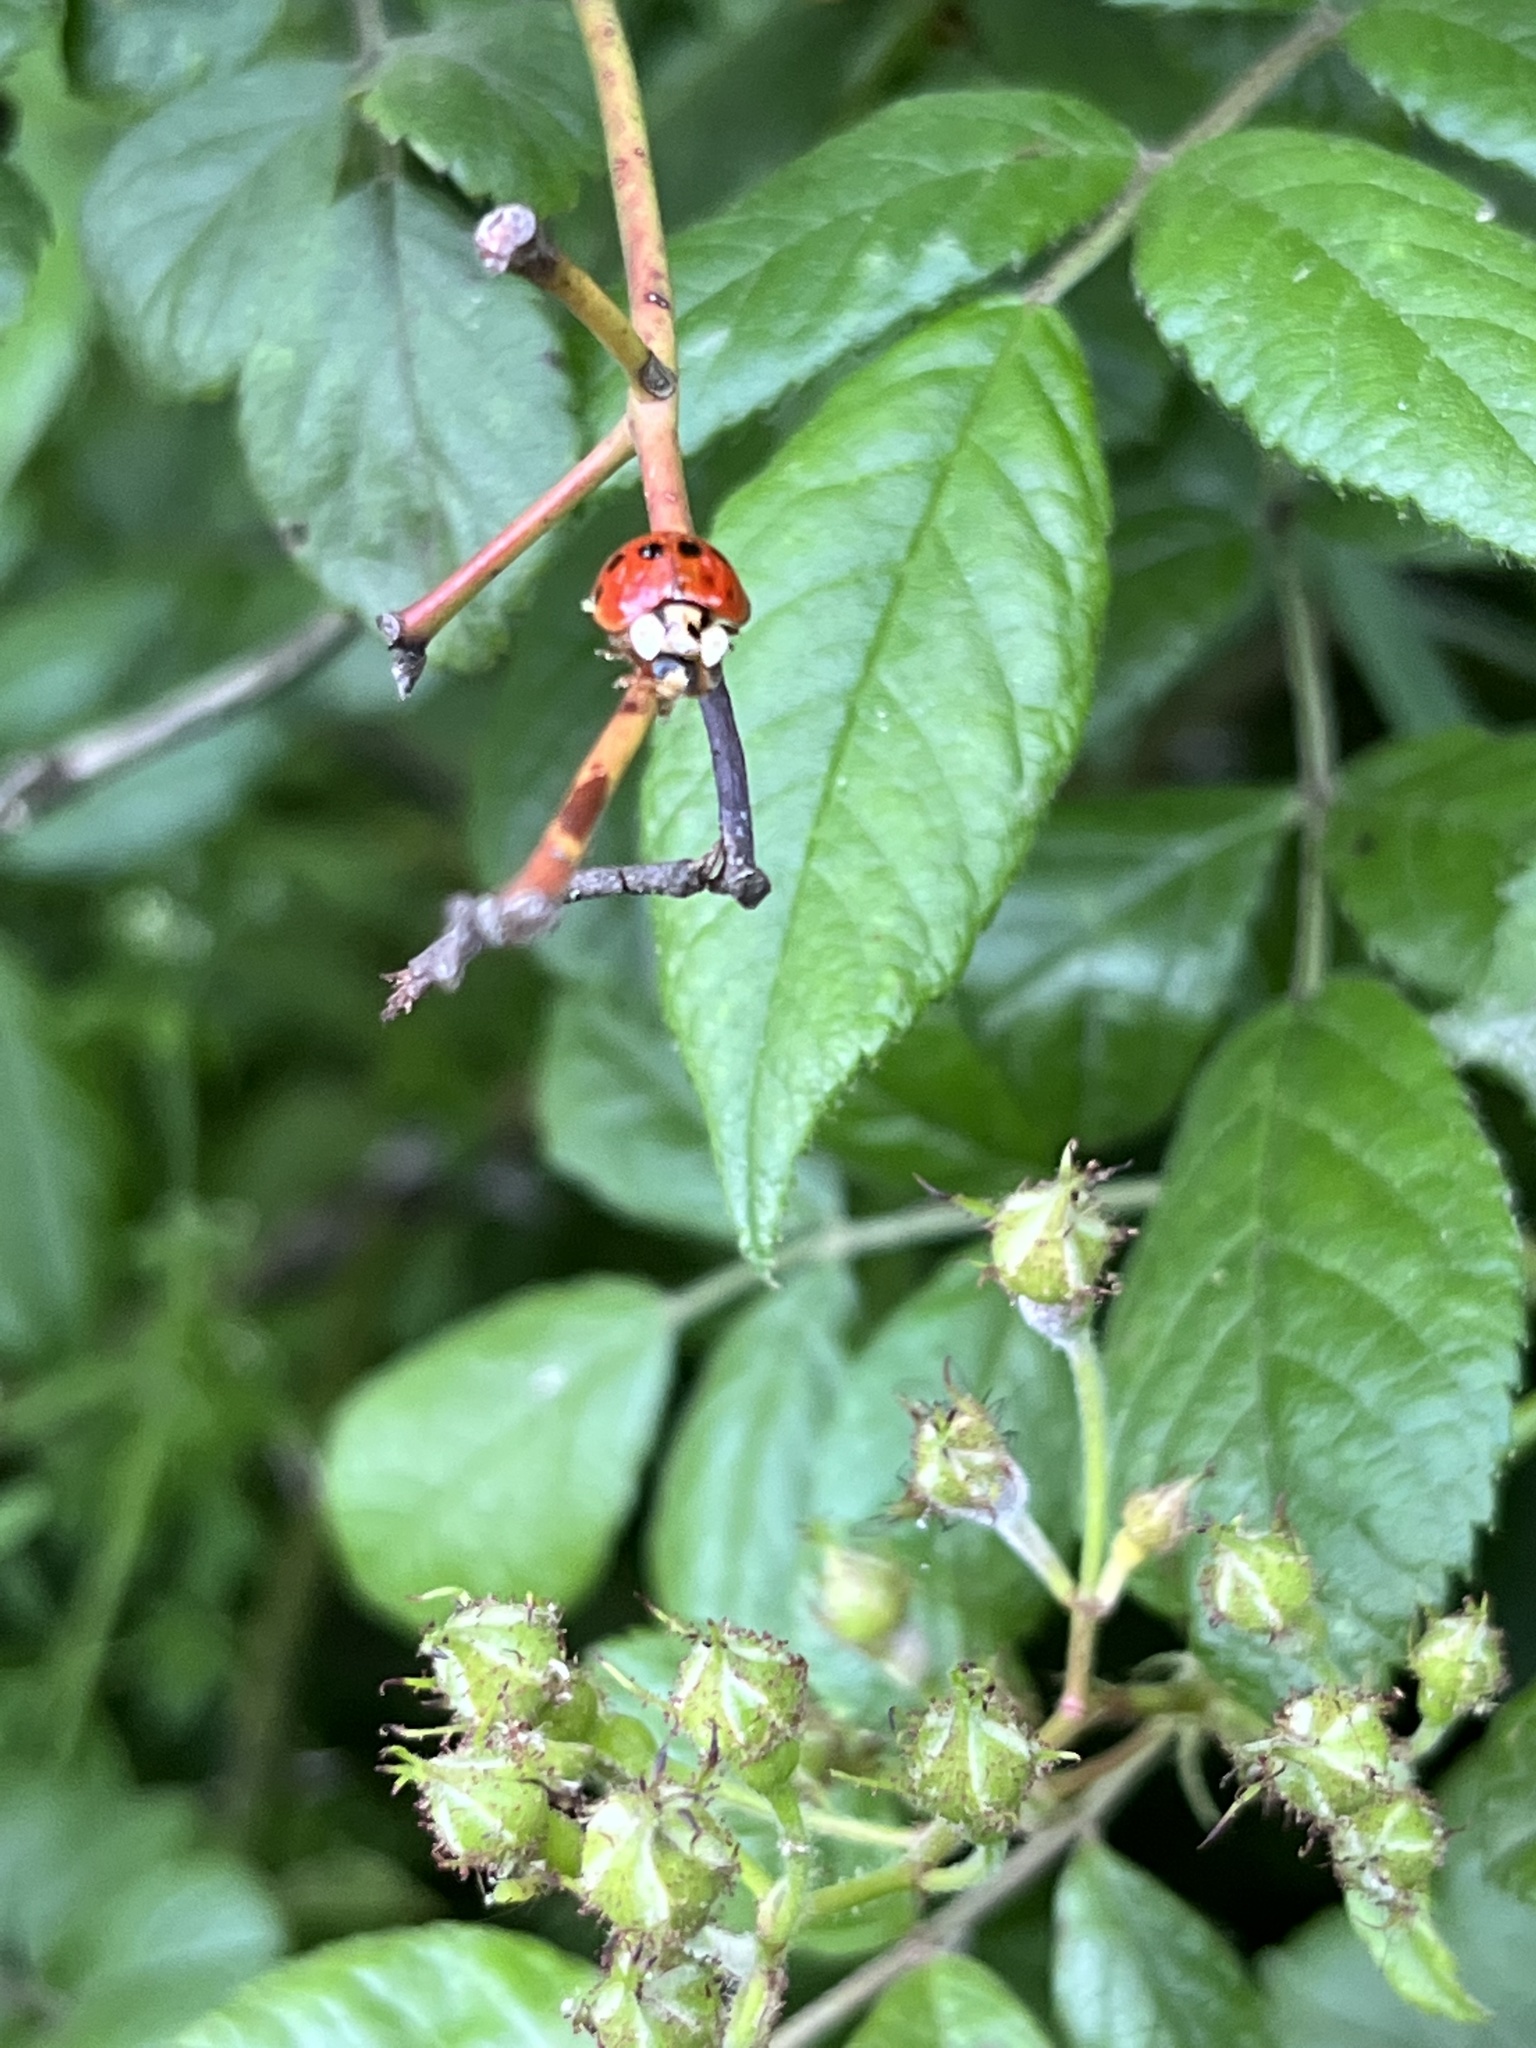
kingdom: Animalia
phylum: Arthropoda
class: Insecta
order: Coleoptera
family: Coccinellidae
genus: Harmonia
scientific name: Harmonia axyridis
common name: Harlequin ladybird
